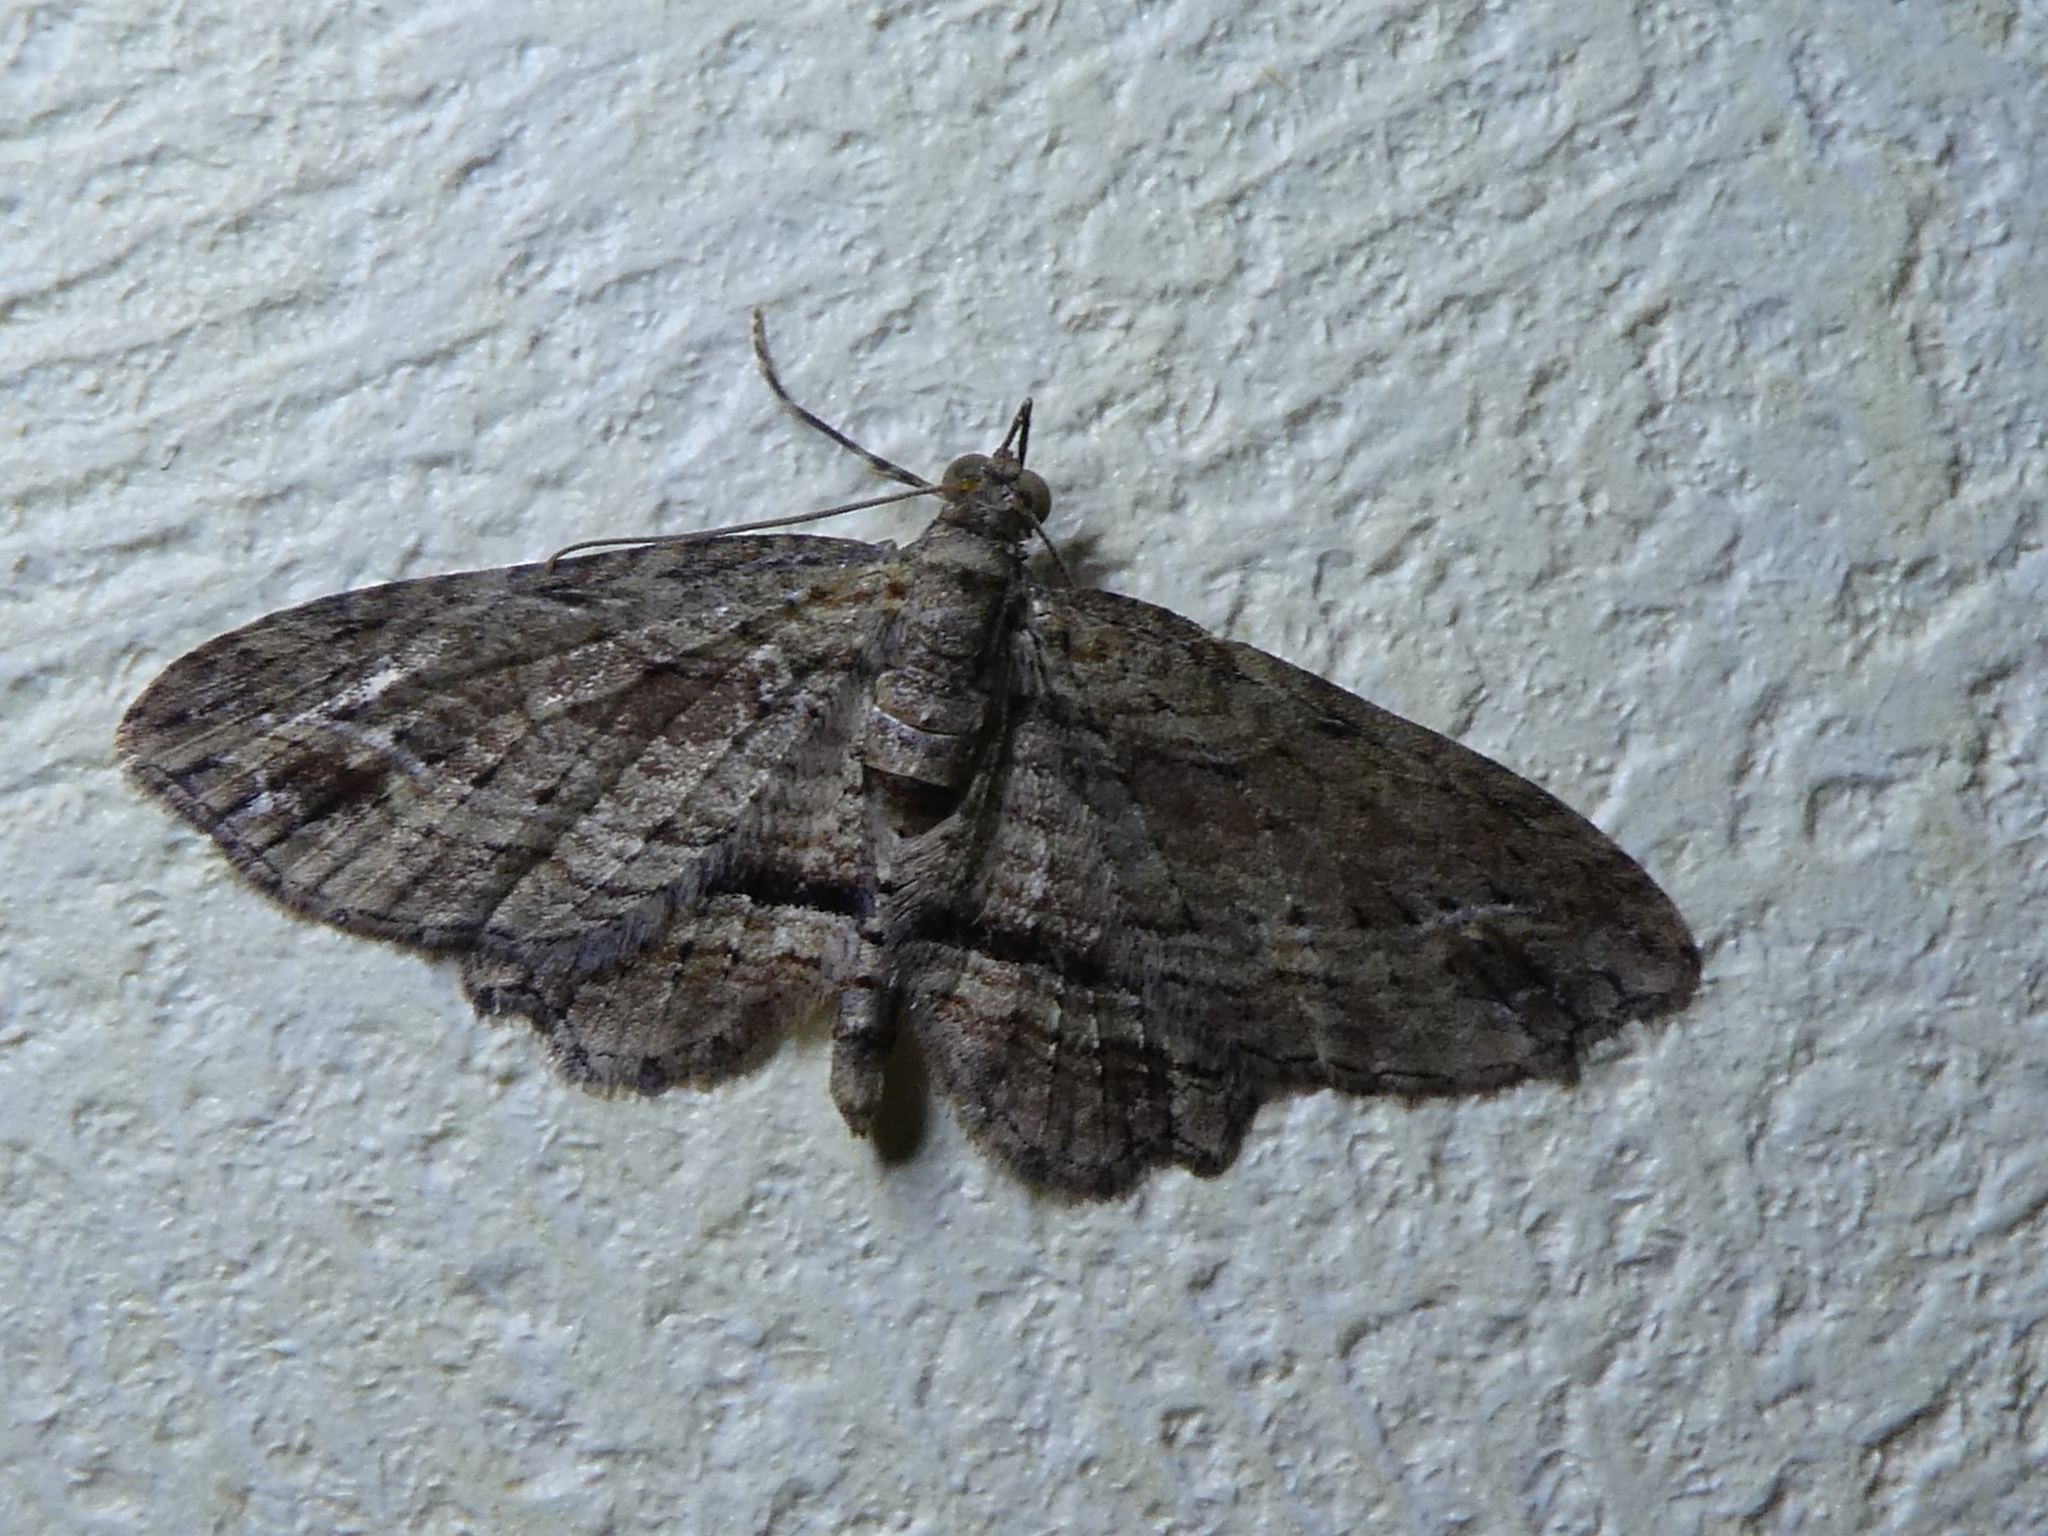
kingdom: Animalia
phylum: Arthropoda
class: Insecta
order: Lepidoptera
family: Geometridae
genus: Chloroclystis
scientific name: Chloroclystis filata
